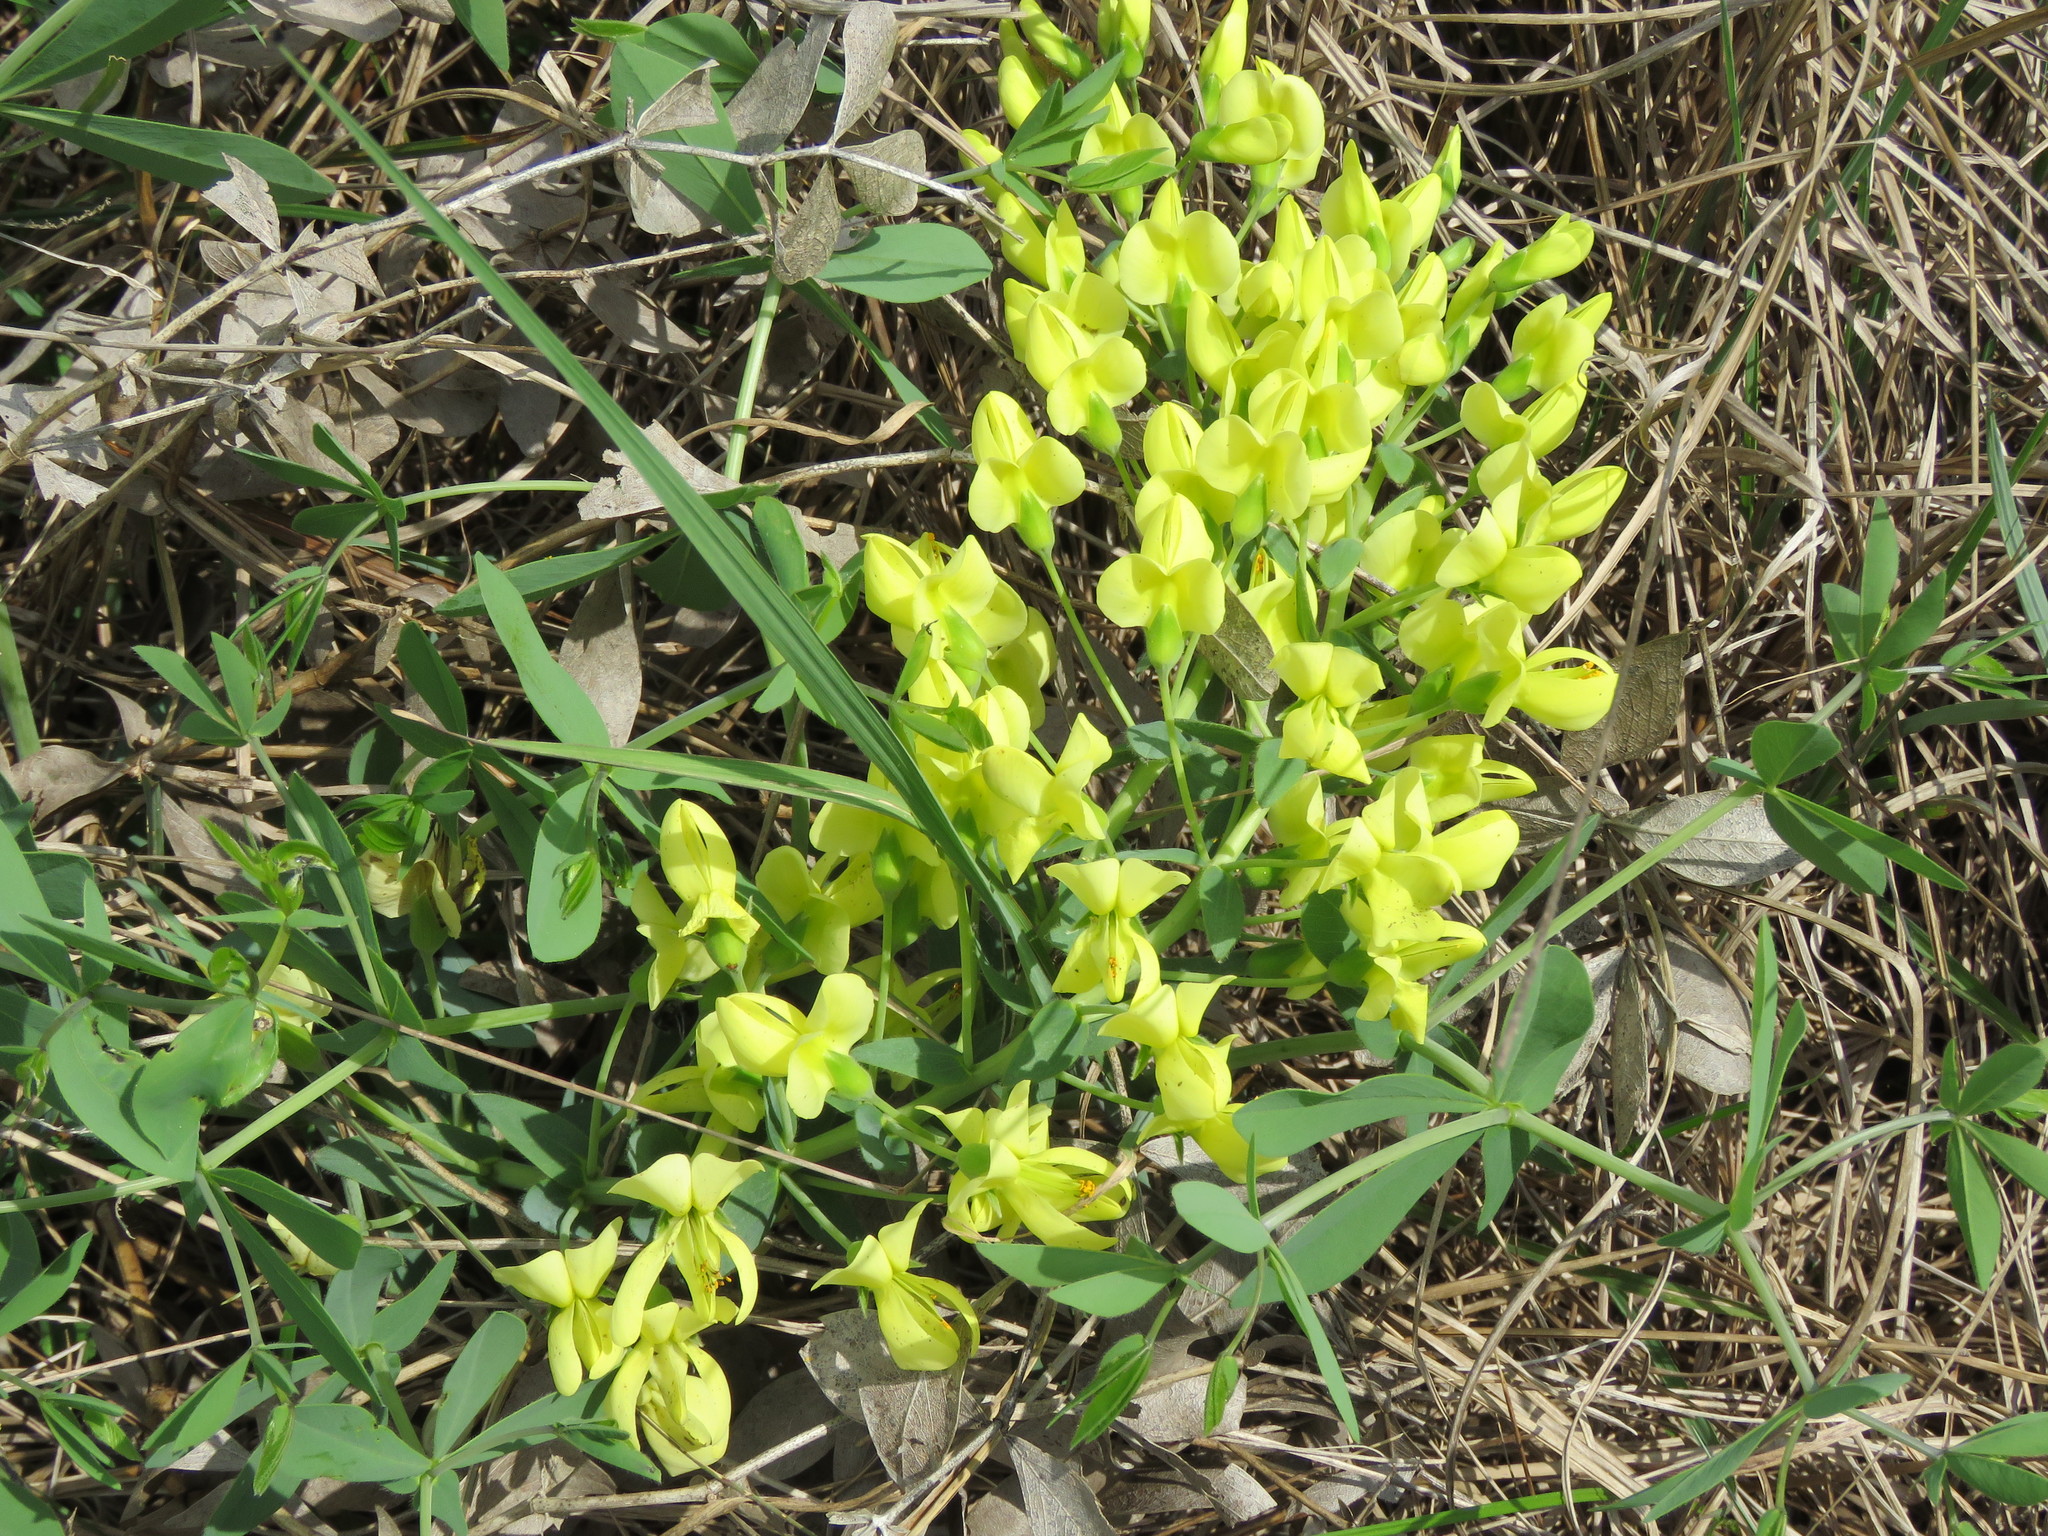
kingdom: Plantae
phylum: Tracheophyta
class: Magnoliopsida
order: Fabales
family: Fabaceae
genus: Baptisia
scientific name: Baptisia bracteata
